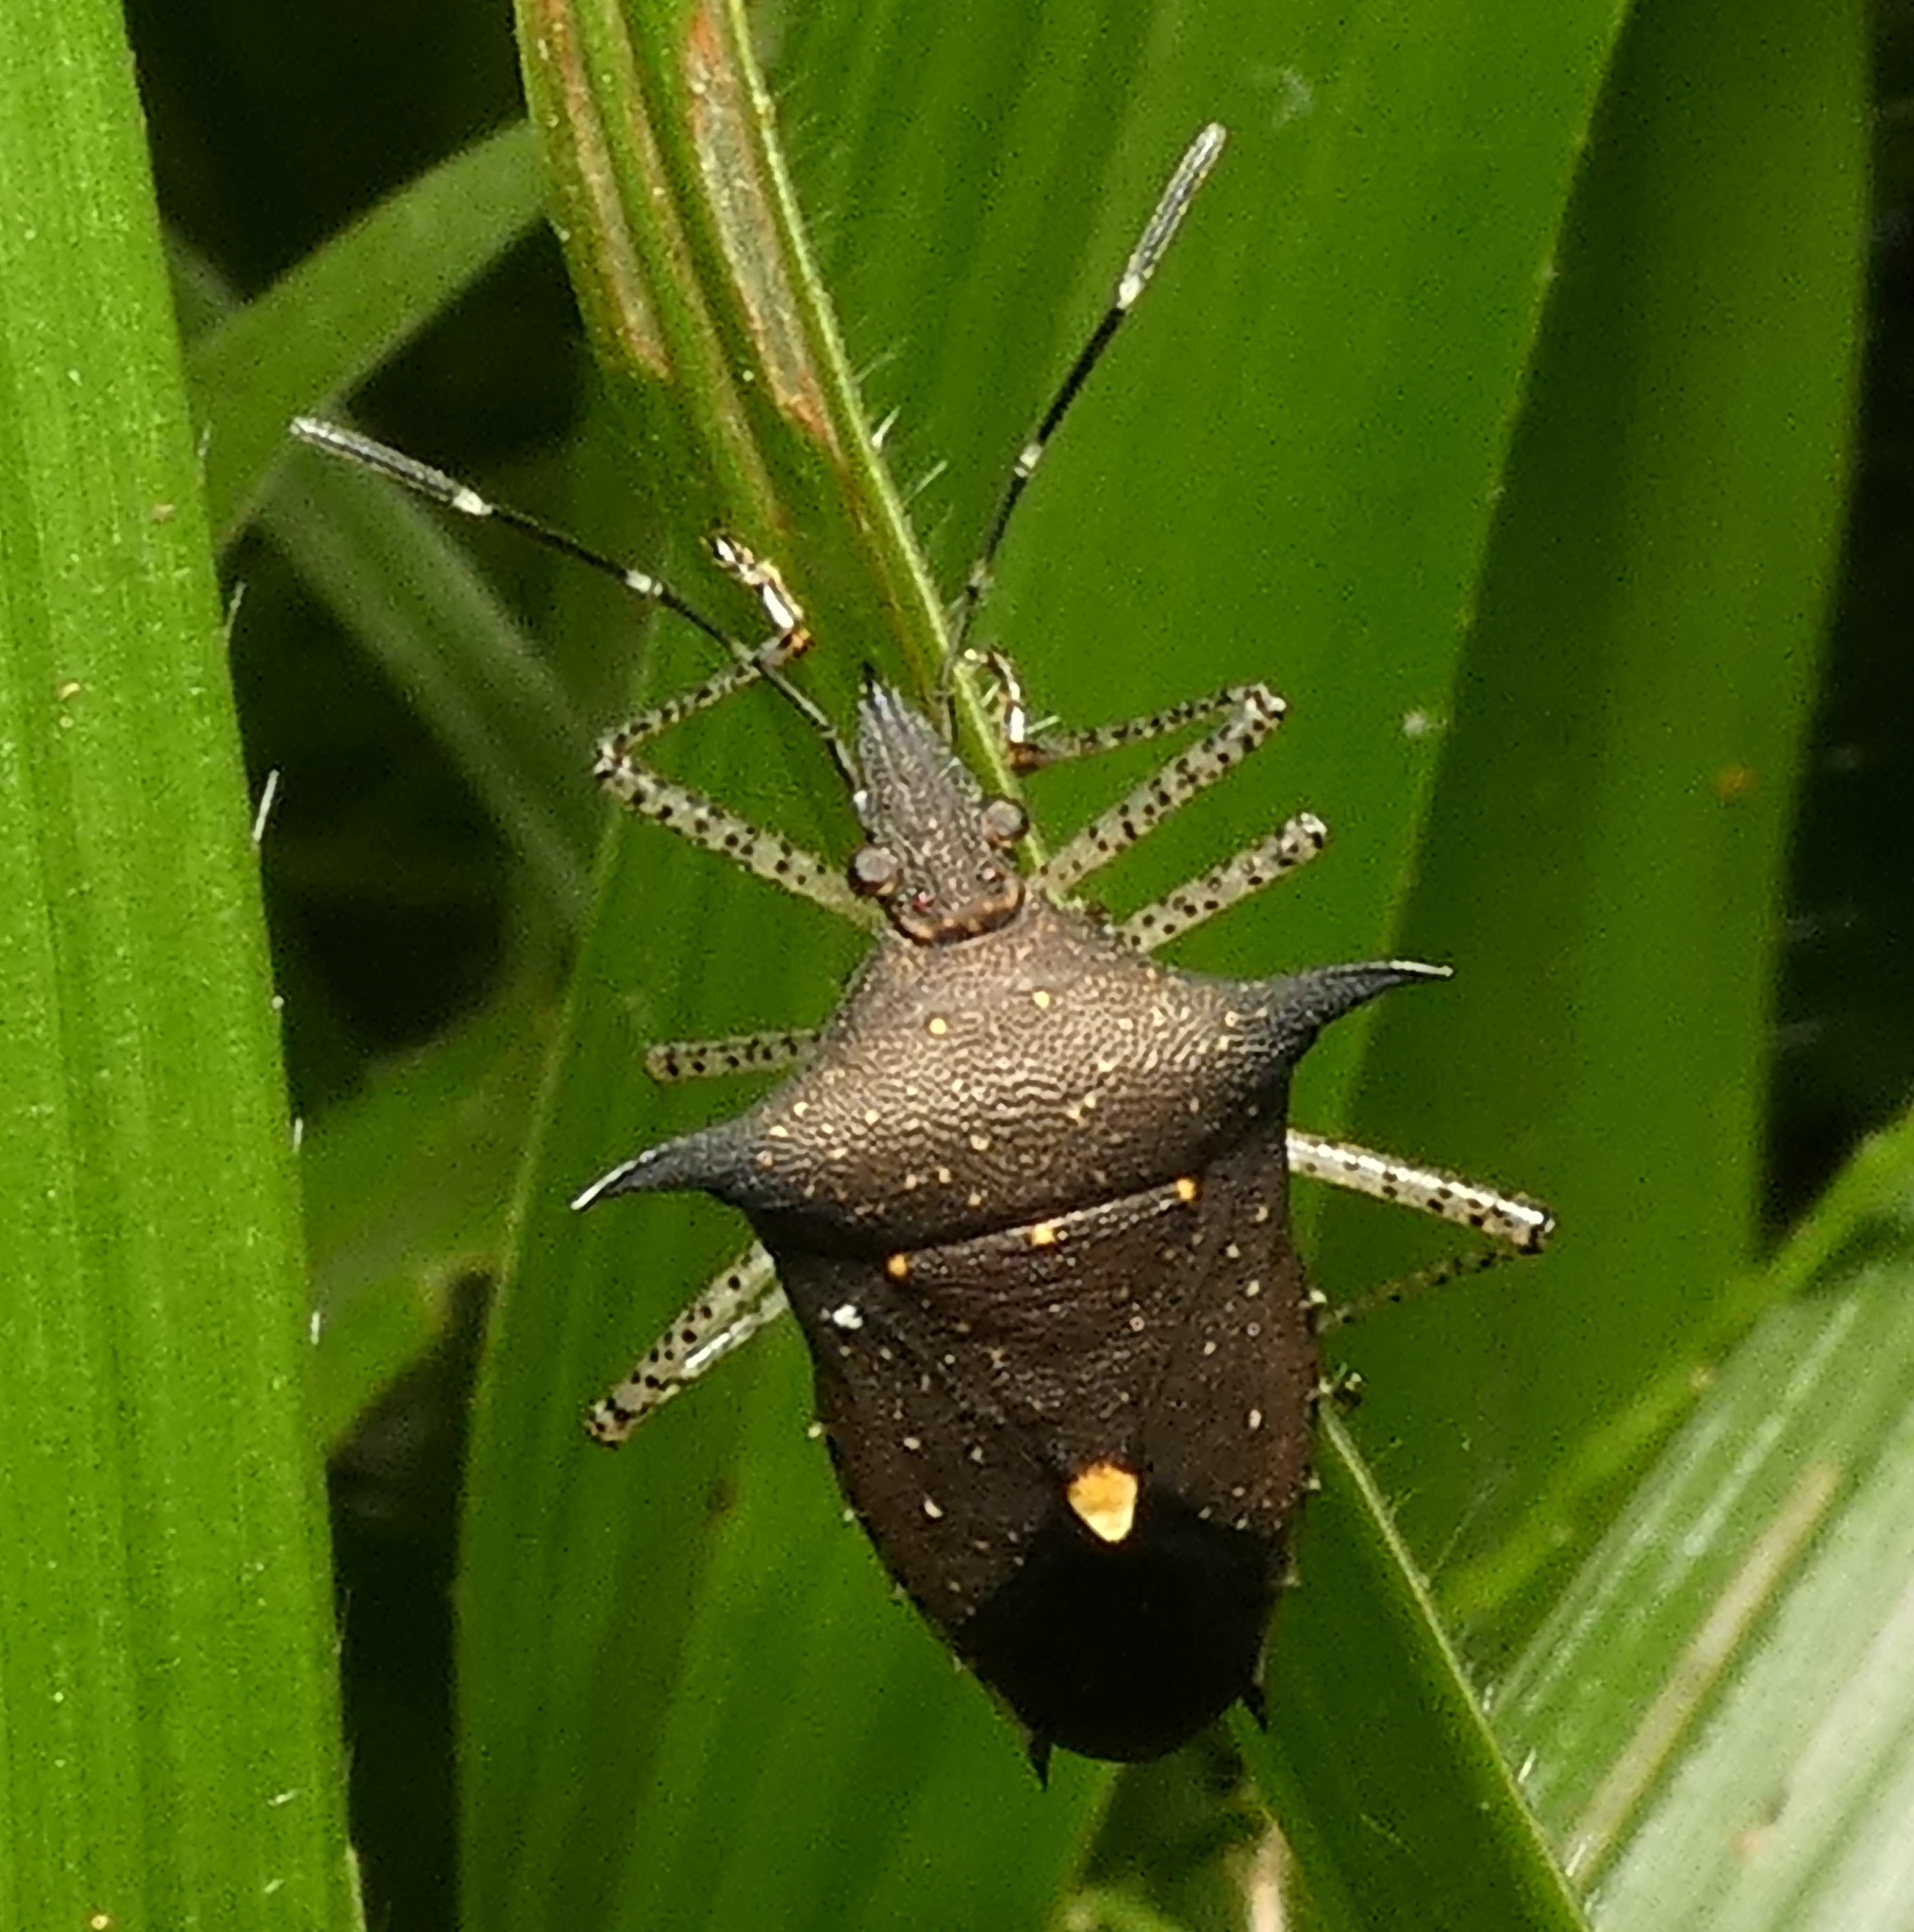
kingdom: Animalia
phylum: Arthropoda
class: Insecta
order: Hemiptera
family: Pentatomidae
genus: Proxys
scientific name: Proxys albopunctulatus
